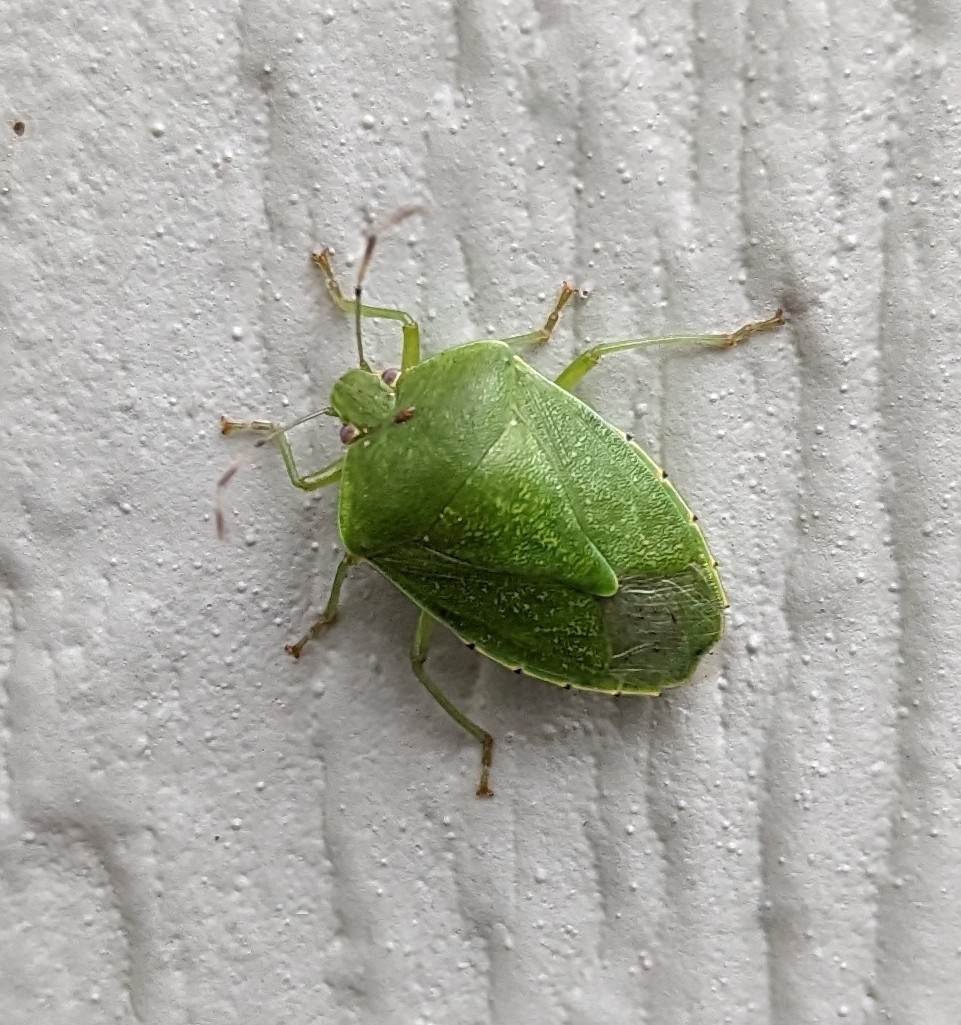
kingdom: Animalia
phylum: Arthropoda
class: Insecta
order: Hemiptera
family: Pentatomidae
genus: Chinavia
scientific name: Chinavia hilaris
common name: Green stink bug
